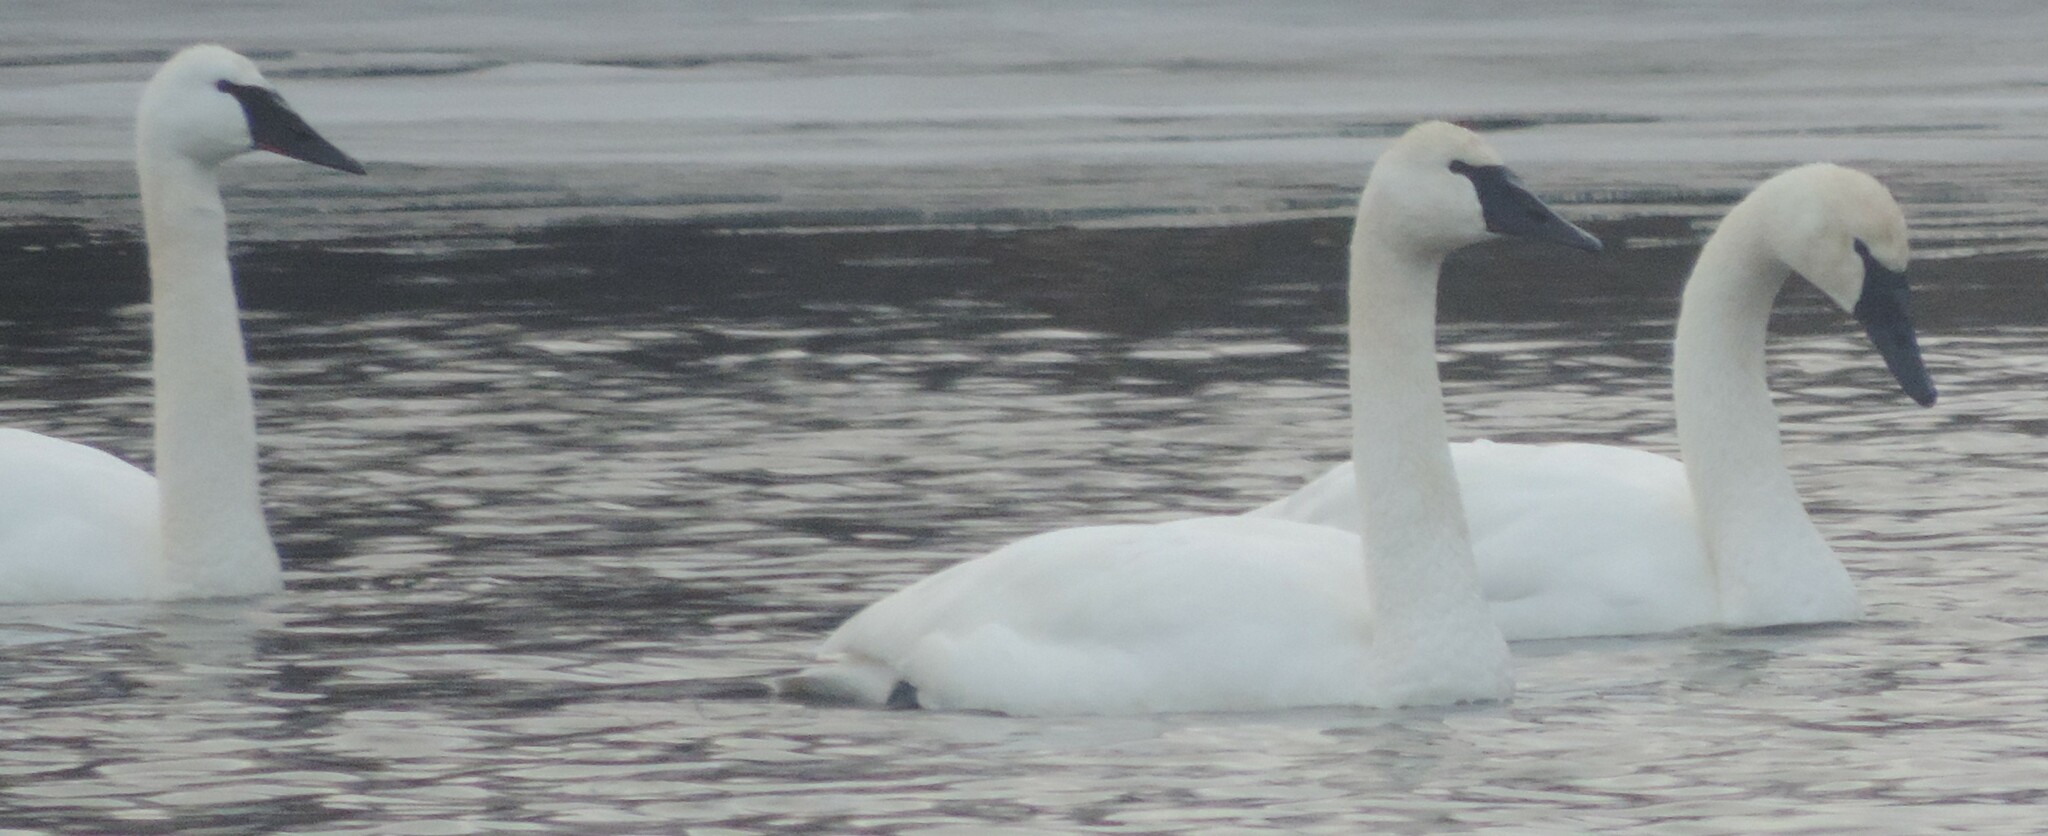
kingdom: Animalia
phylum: Chordata
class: Aves
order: Anseriformes
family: Anatidae
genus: Cygnus
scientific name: Cygnus buccinator
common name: Trumpeter swan
